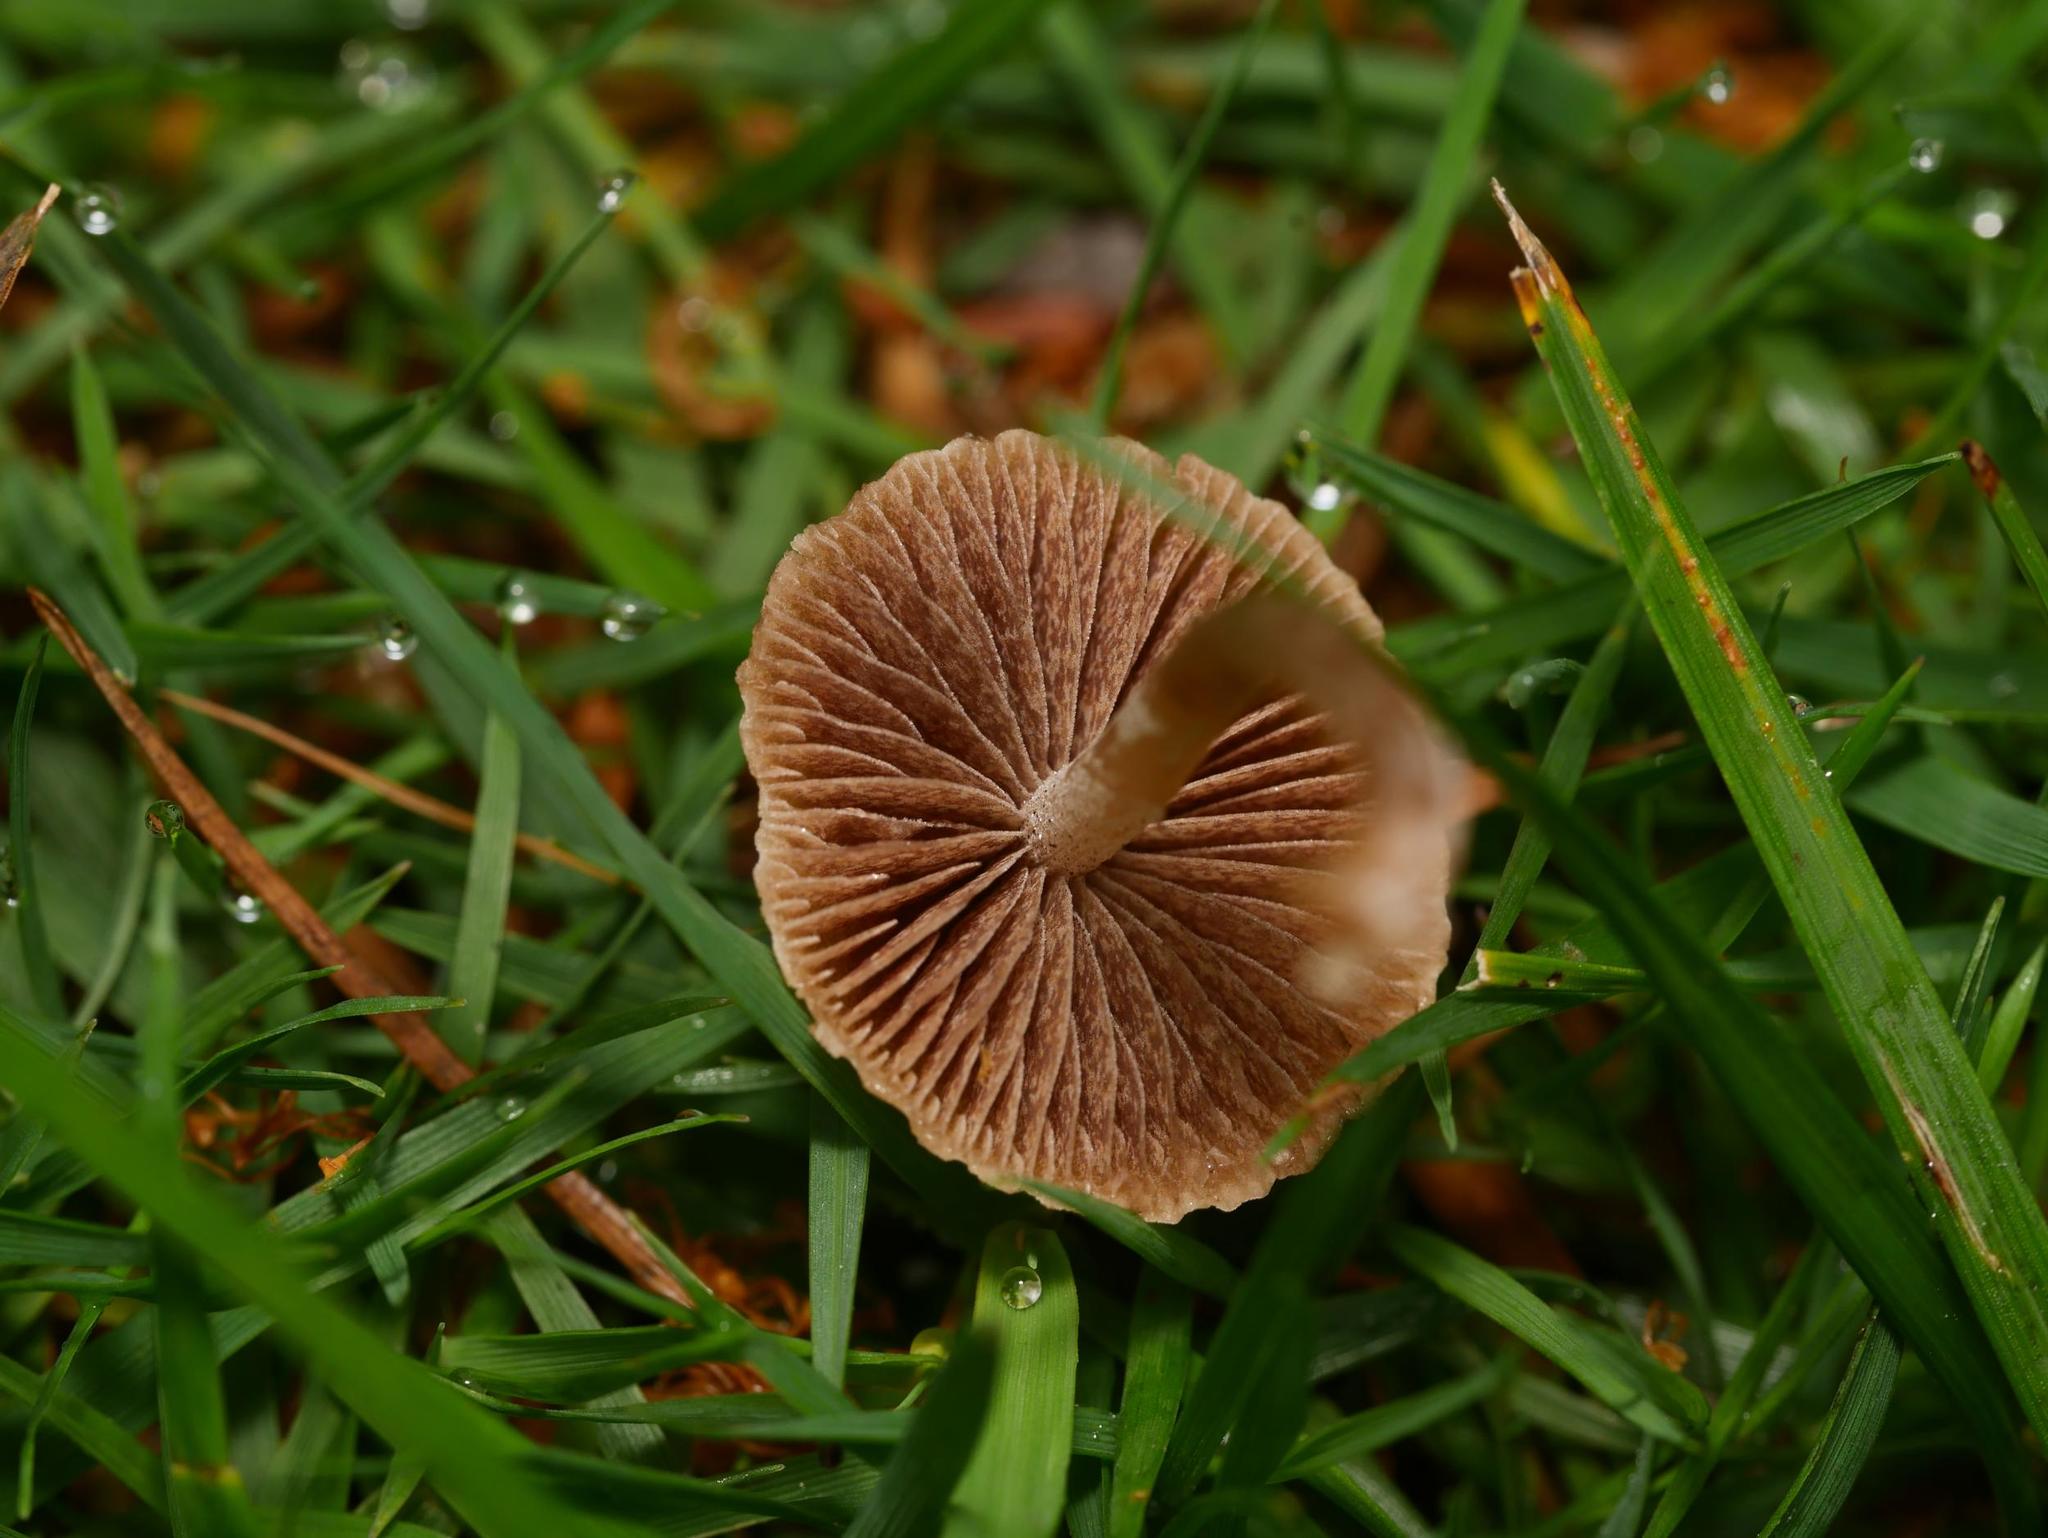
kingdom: Fungi
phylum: Basidiomycota
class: Agaricomycetes
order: Agaricales
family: Bolbitiaceae
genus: Panaeolina
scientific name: Panaeolina foenisecii
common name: Brown hay cap
